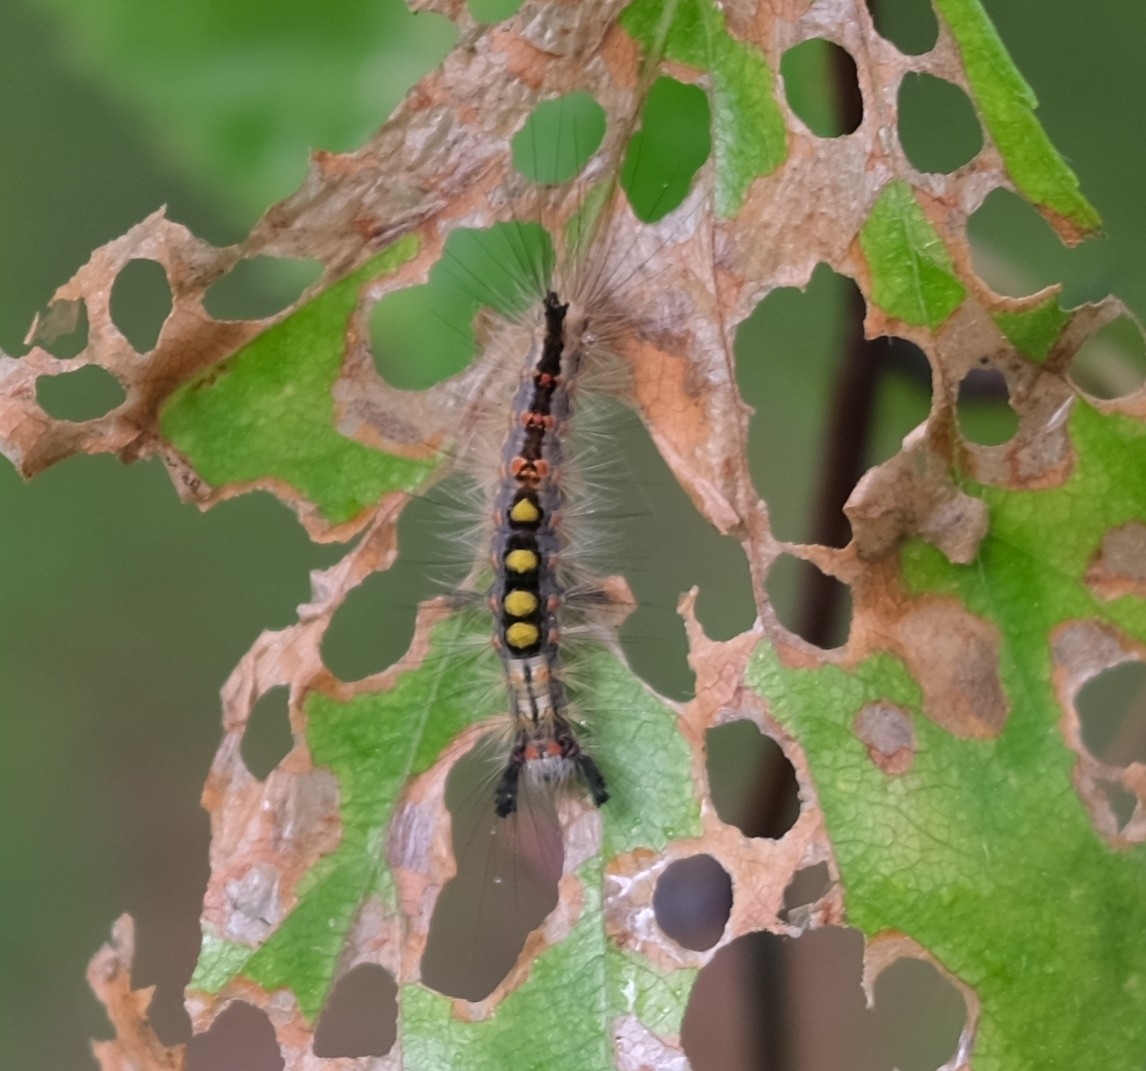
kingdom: Animalia
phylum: Arthropoda
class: Insecta
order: Lepidoptera
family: Erebidae
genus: Orgyia
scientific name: Orgyia antiqua
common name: Vapourer
